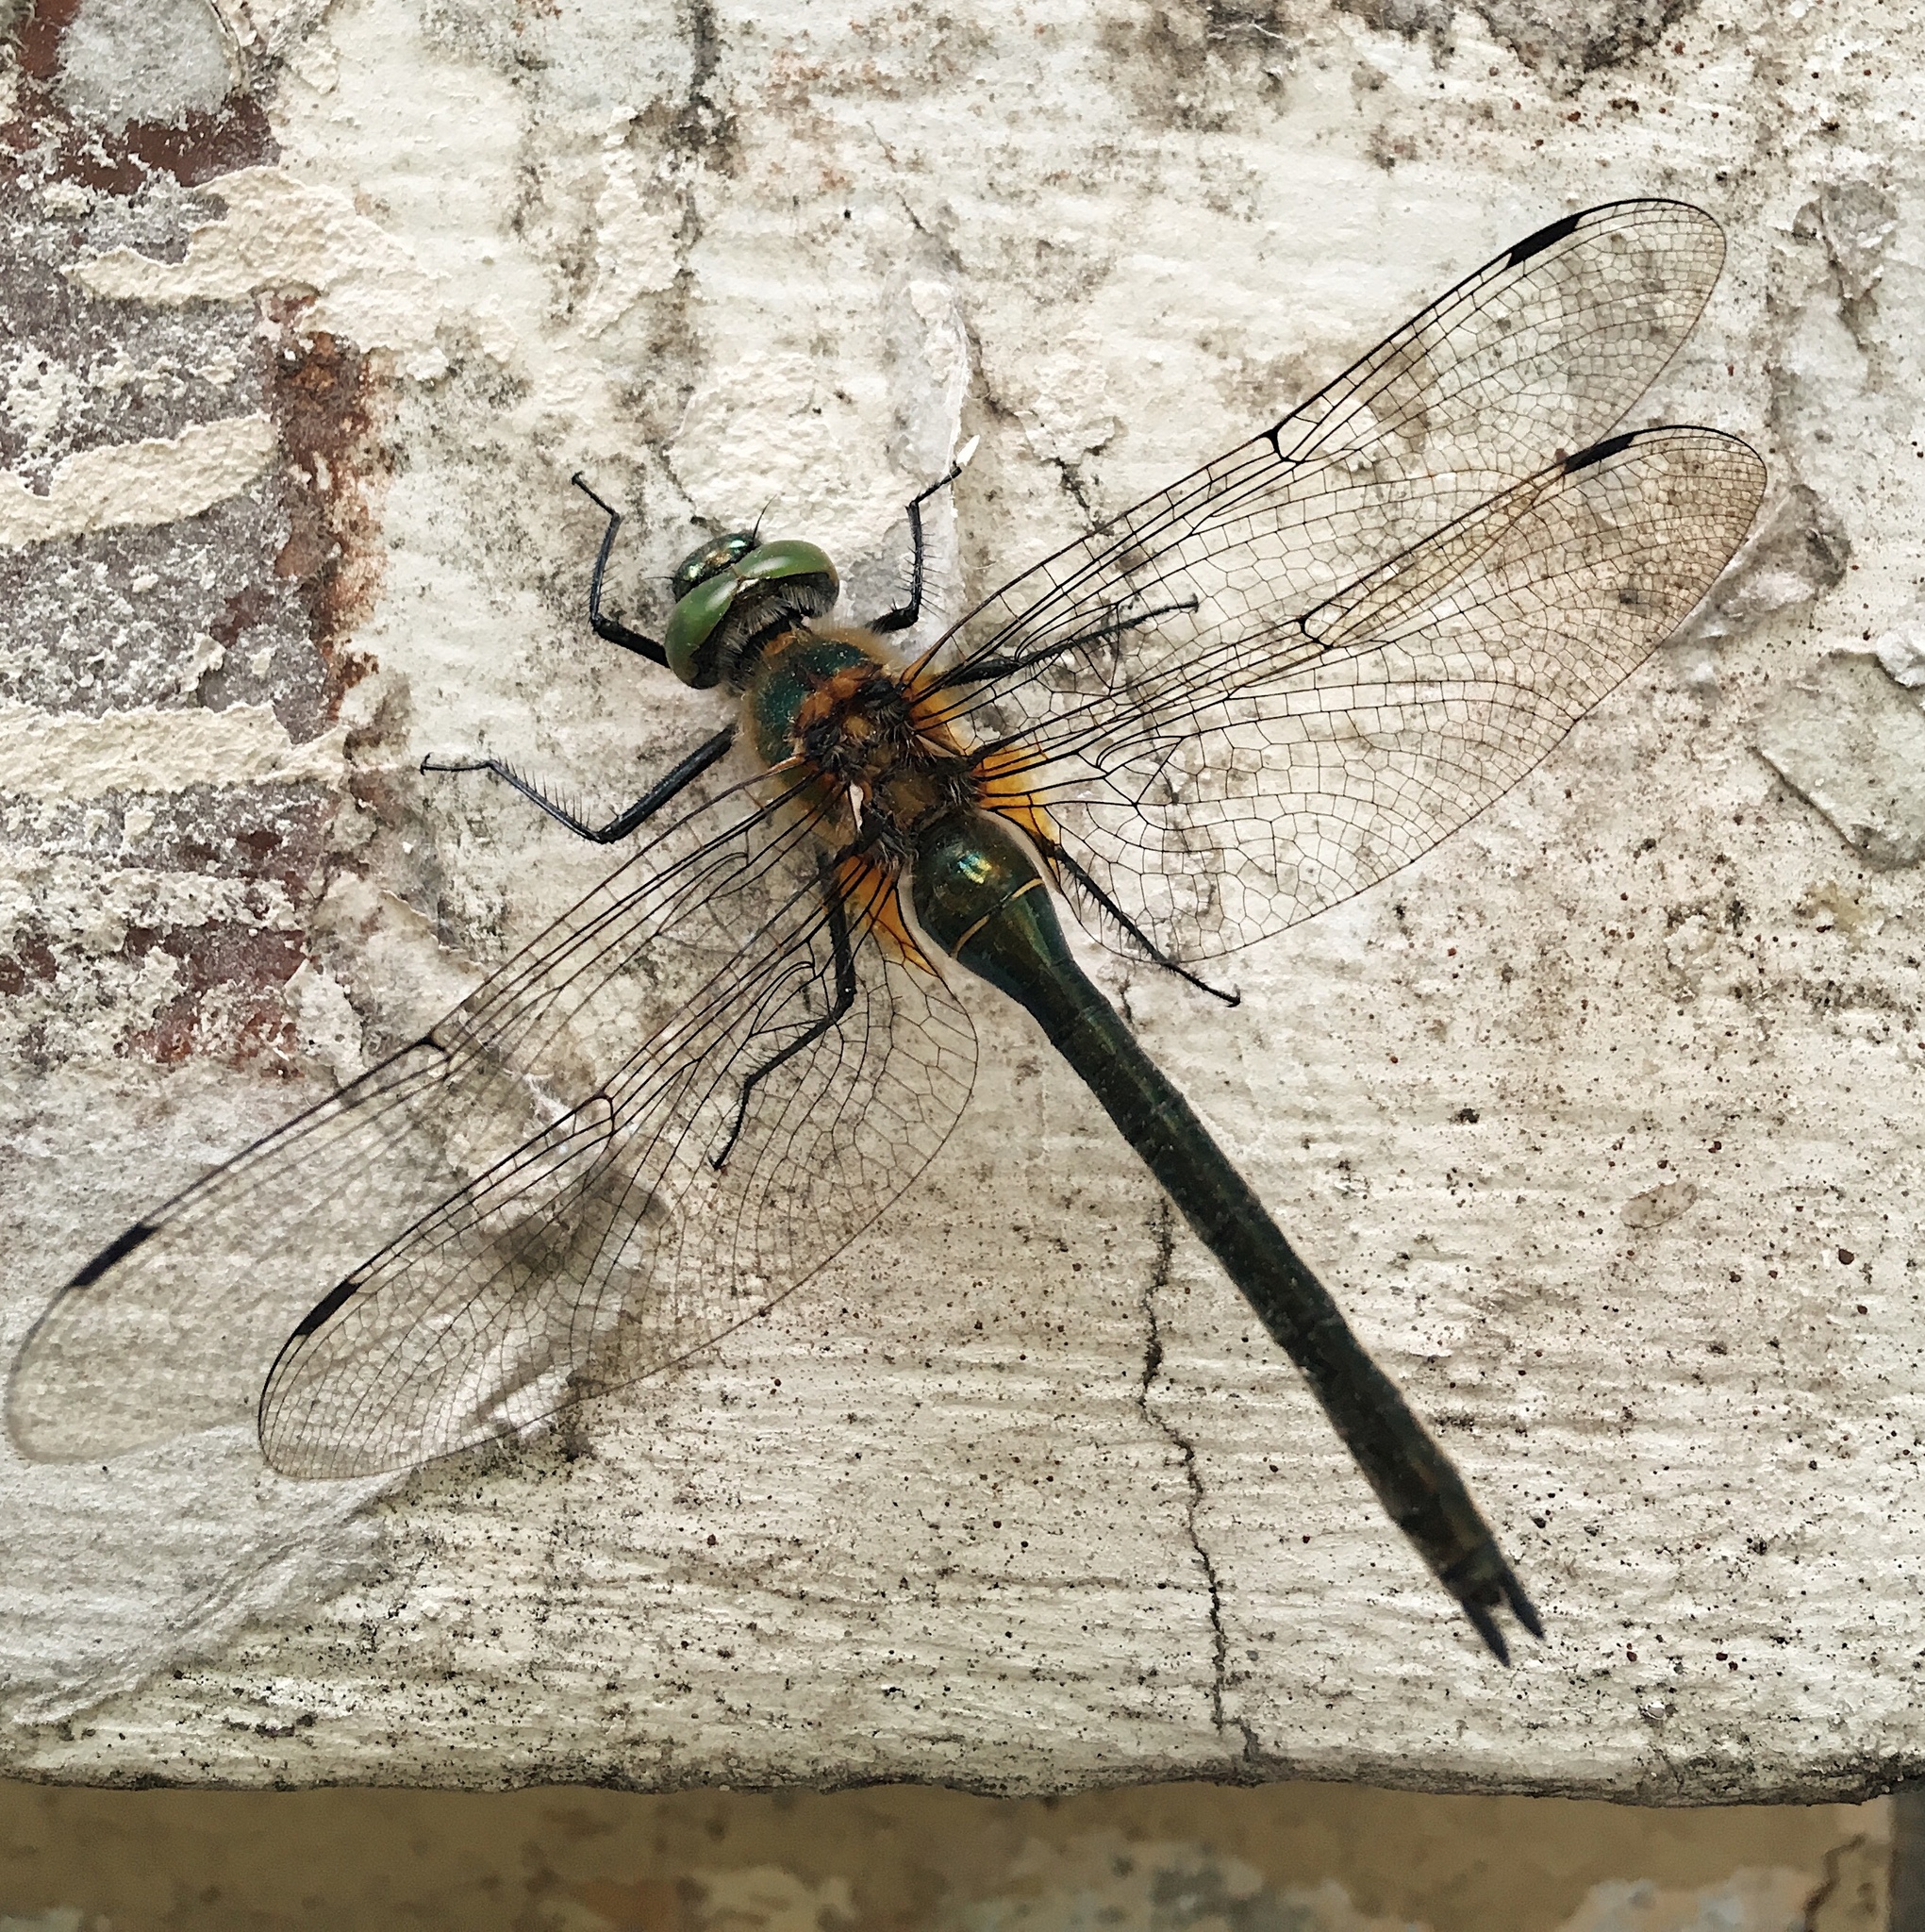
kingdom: Animalia
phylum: Arthropoda
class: Insecta
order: Odonata
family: Corduliidae
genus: Cordulia
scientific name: Cordulia aenea
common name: Downy emerald
